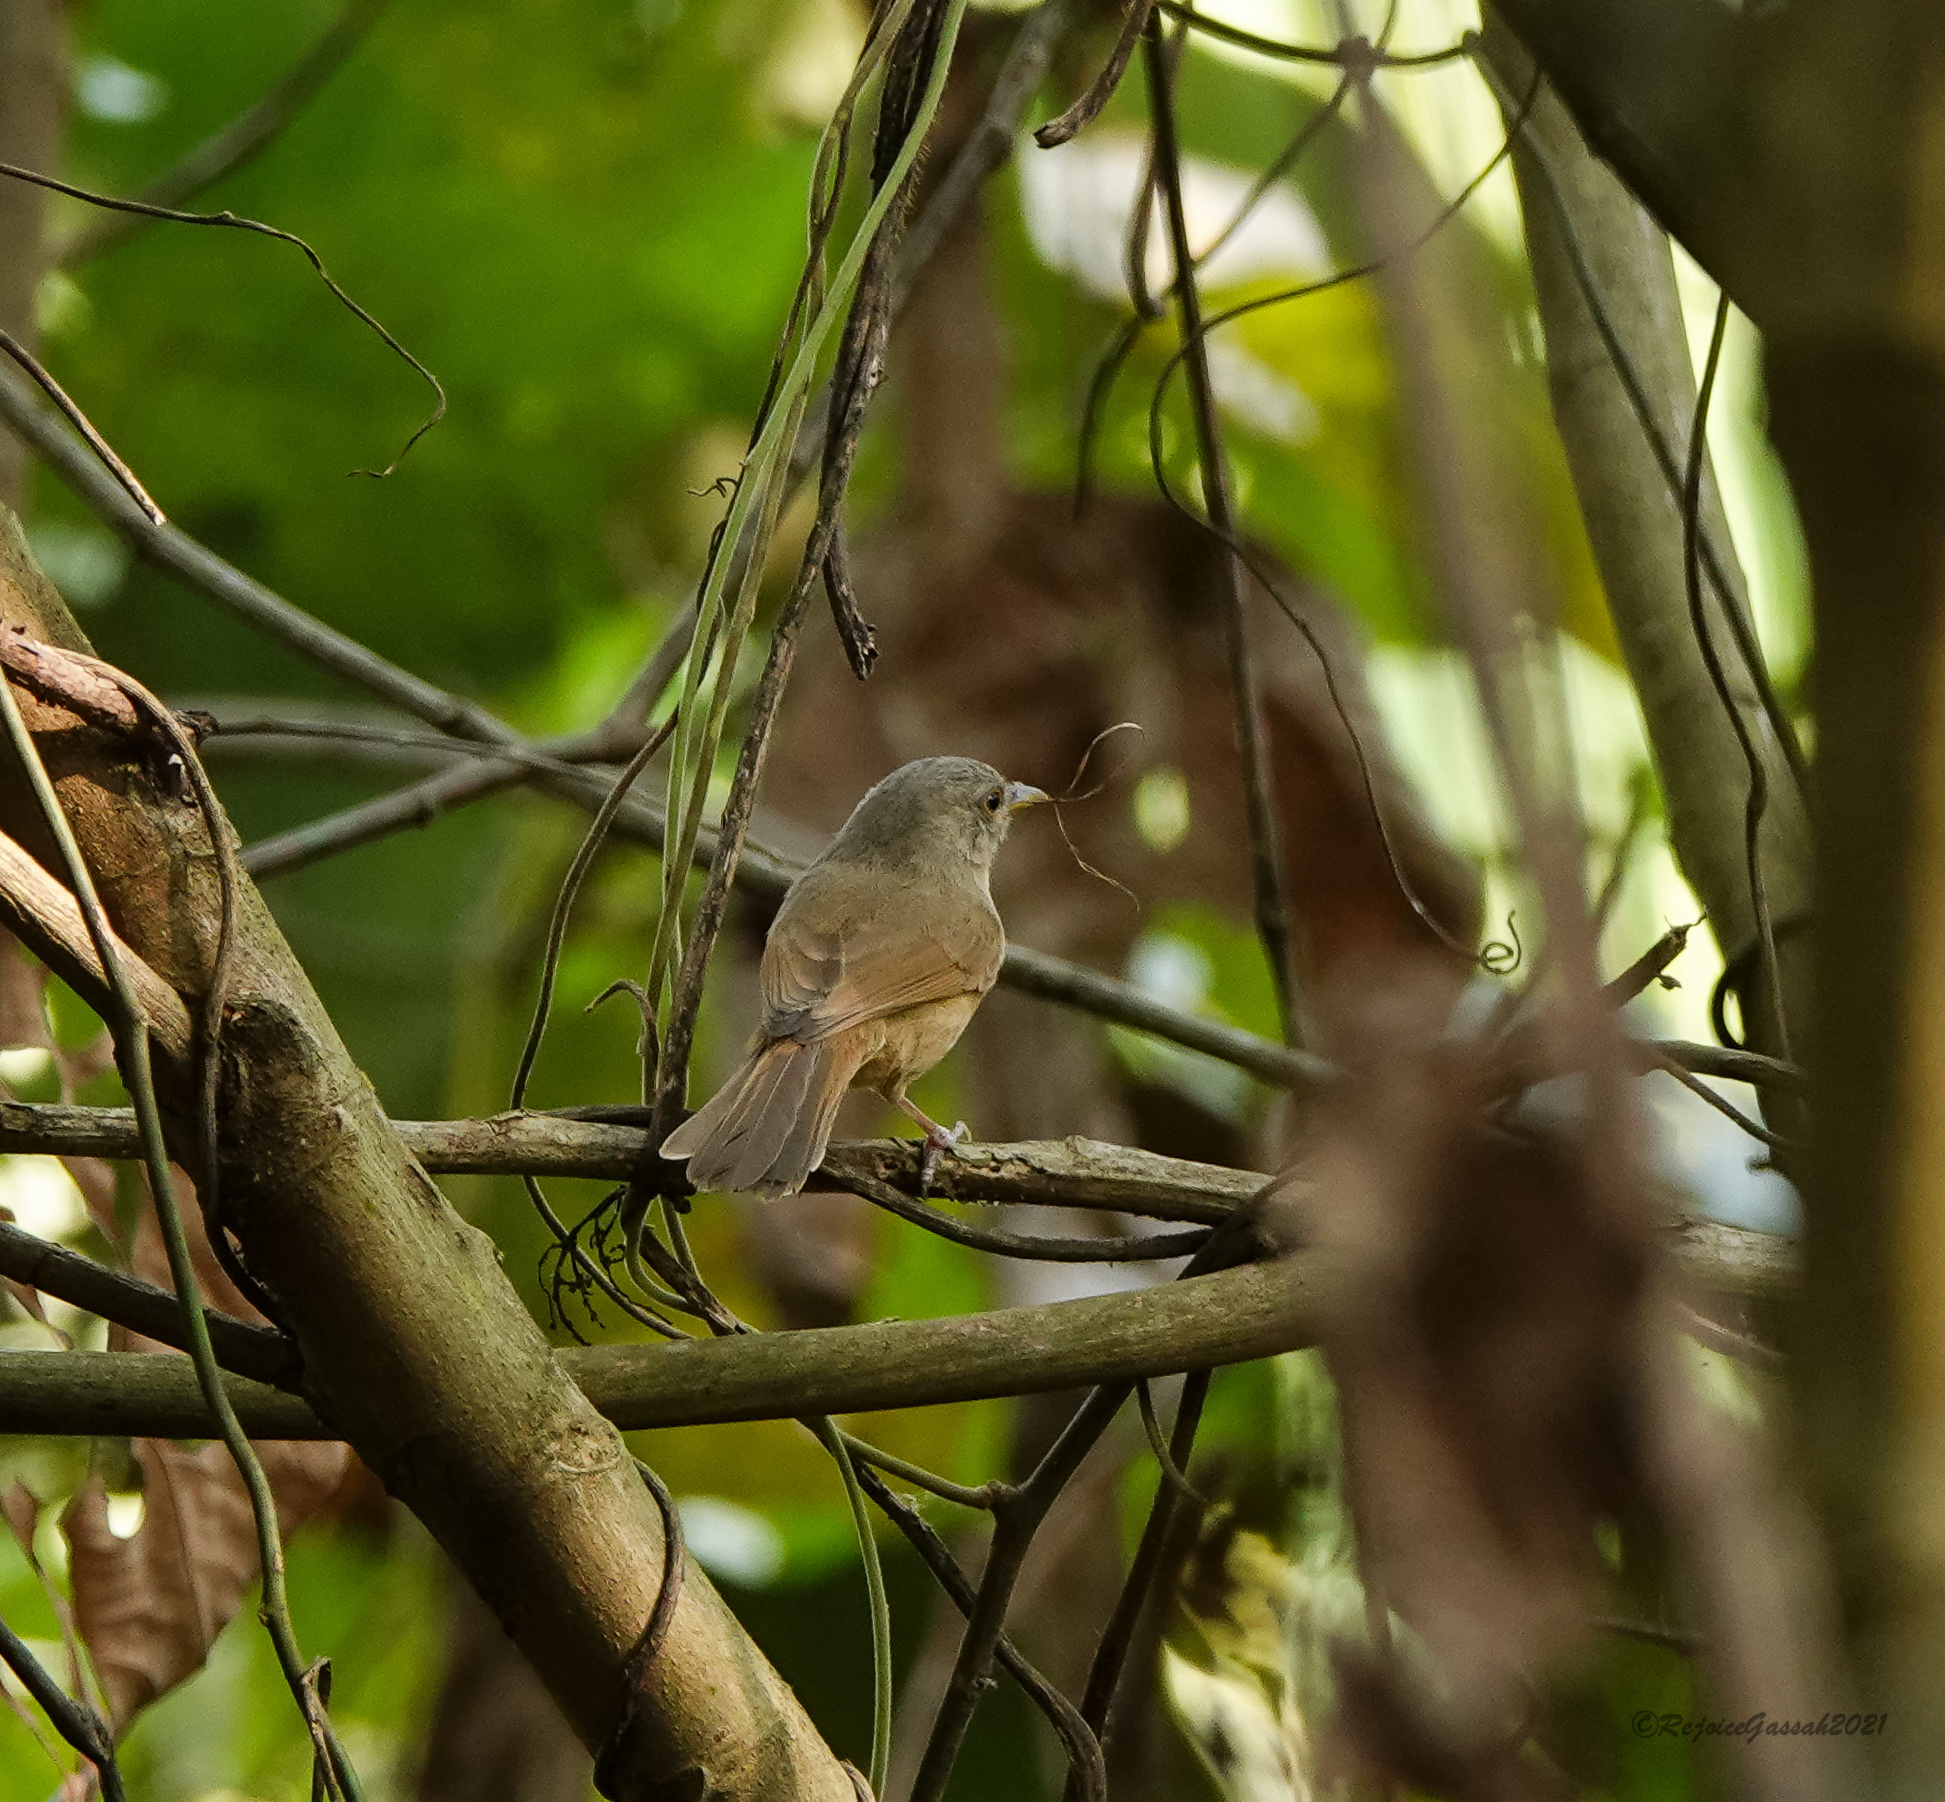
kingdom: Animalia
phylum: Chordata
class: Aves
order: Passeriformes
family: Pellorneidae
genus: Alcippe
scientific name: Alcippe poioicephala
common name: Brown-cheeked fulvetta
